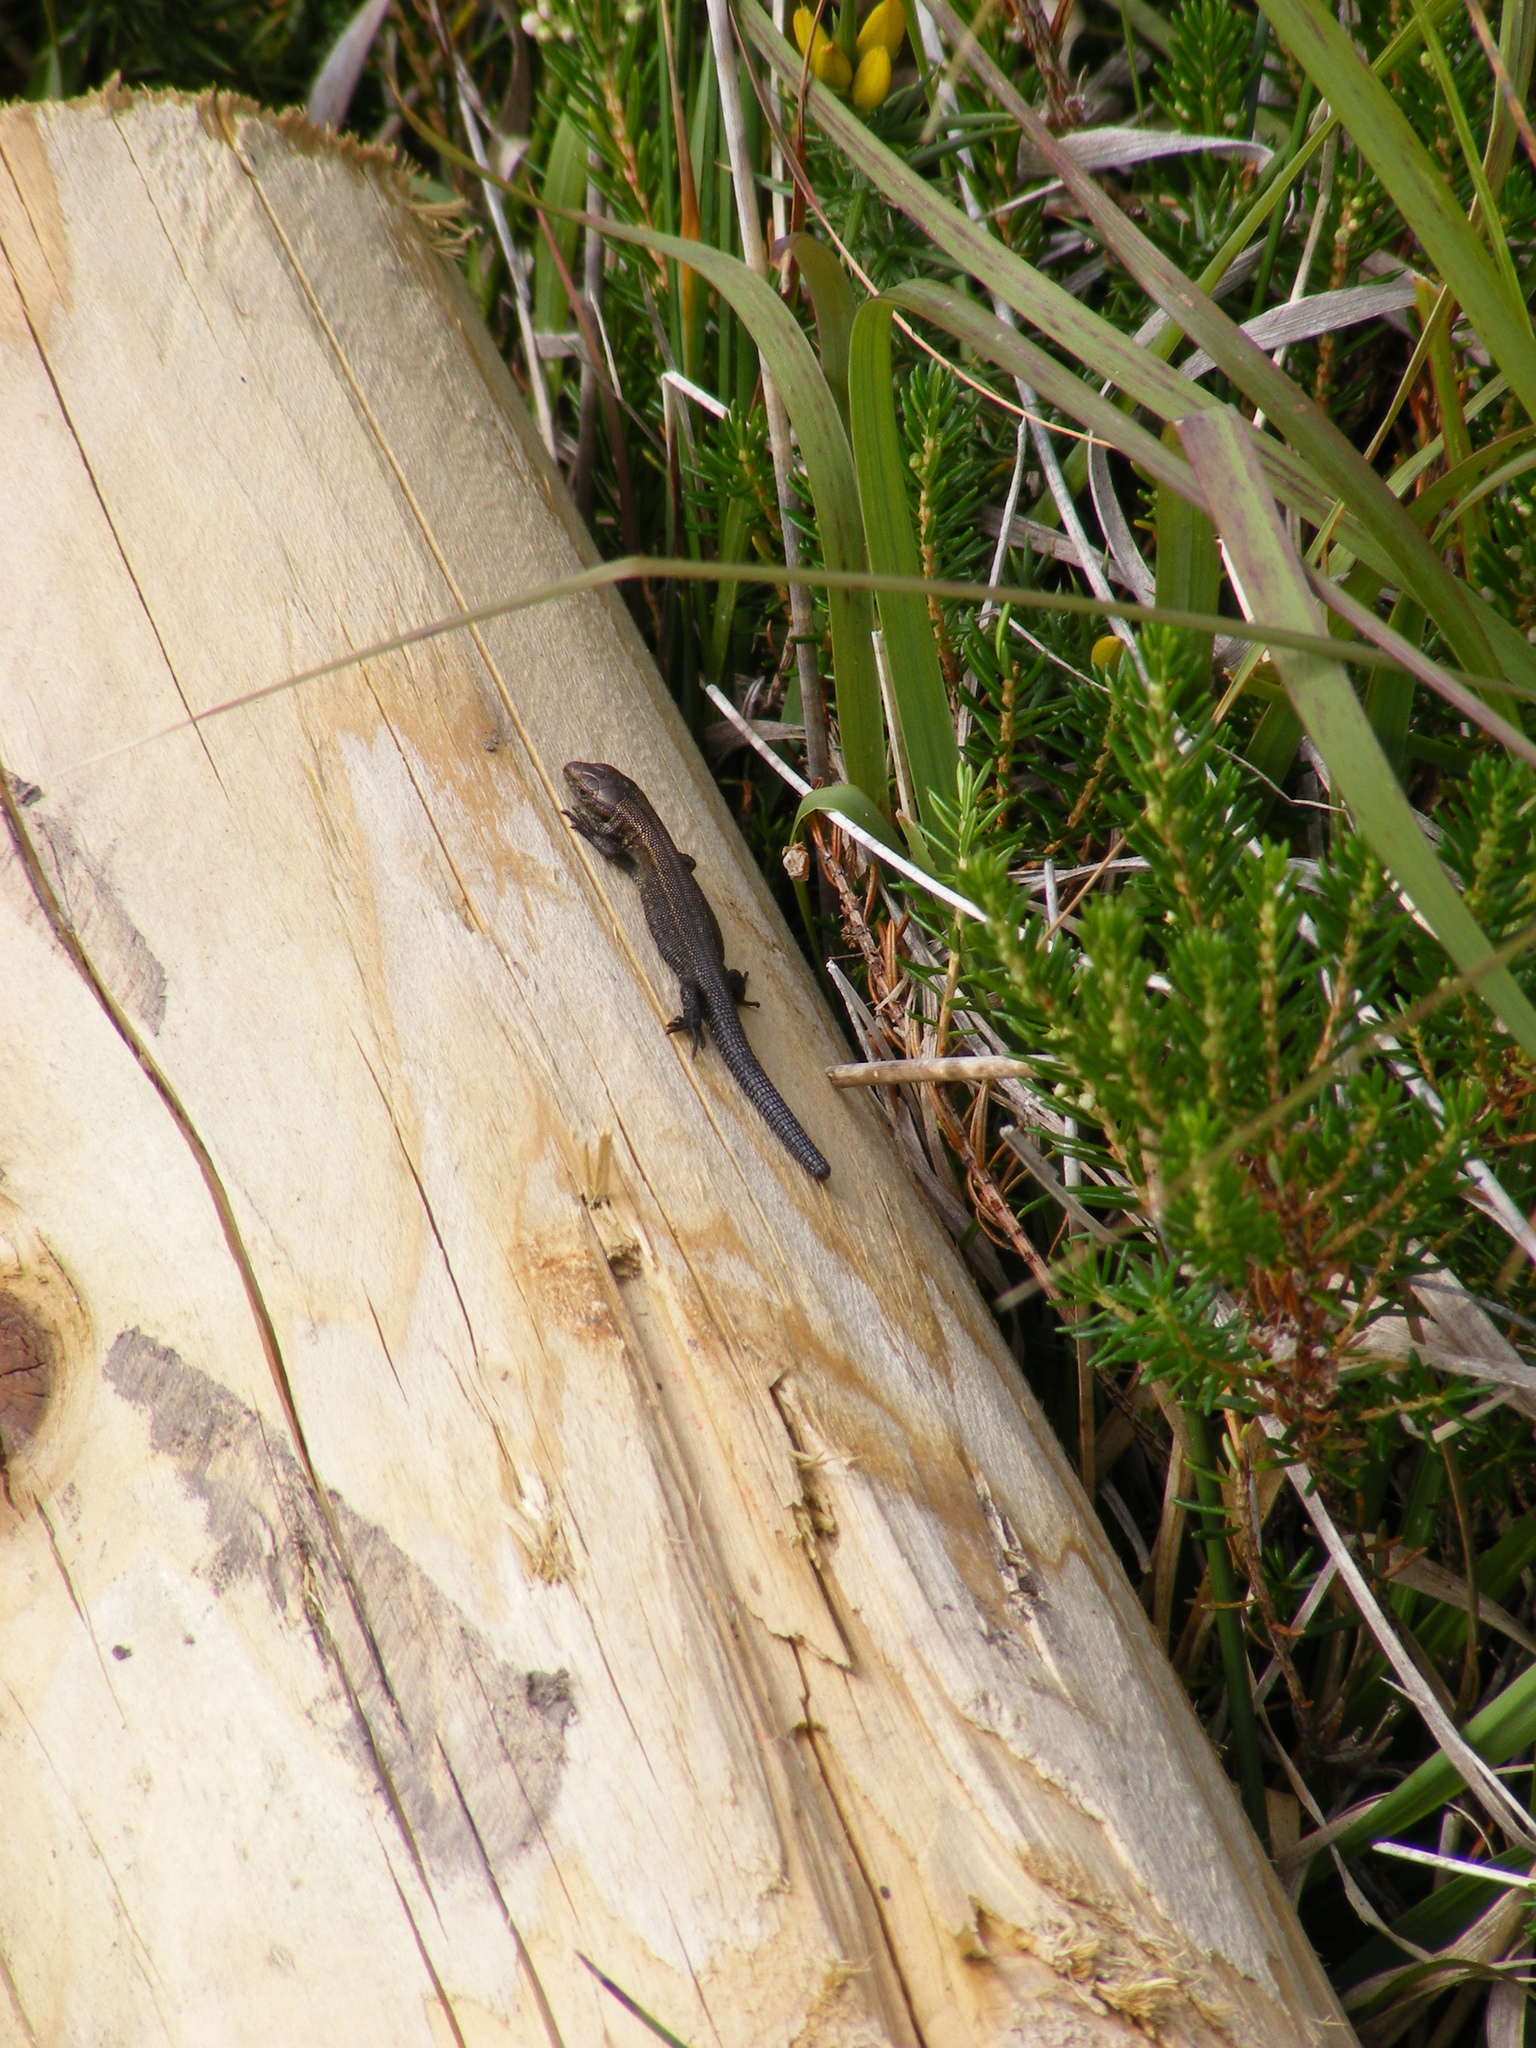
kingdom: Animalia
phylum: Chordata
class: Squamata
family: Lacertidae
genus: Zootoca
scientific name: Zootoca vivipara
